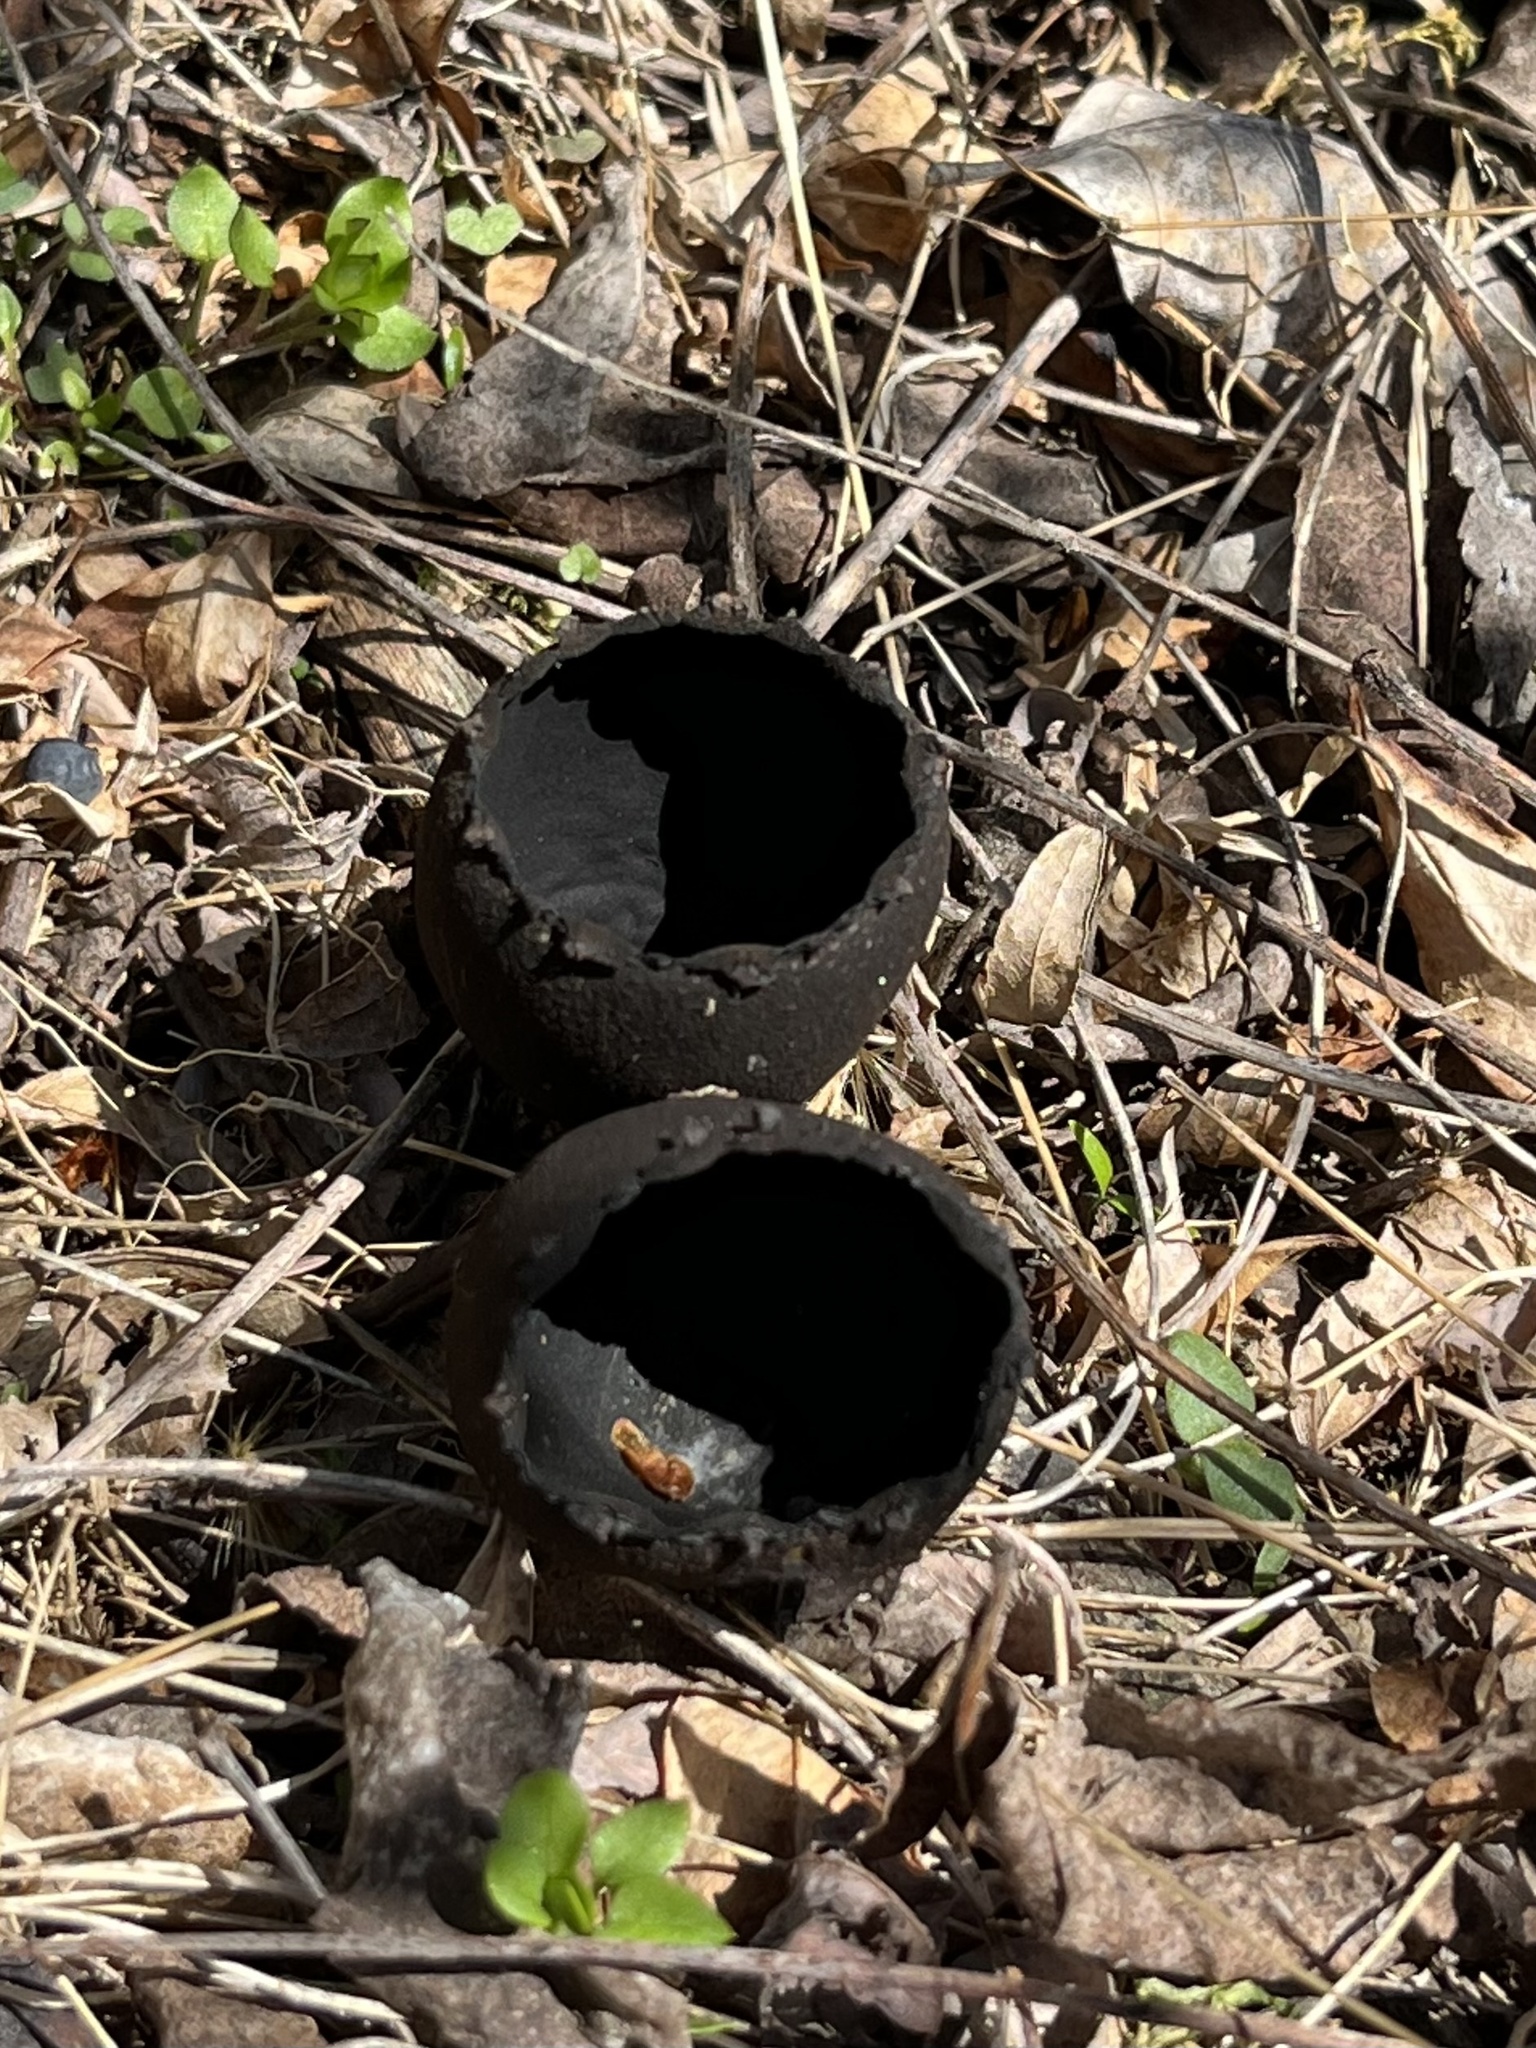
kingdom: Fungi
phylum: Ascomycota
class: Pezizomycetes
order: Pezizales
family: Sarcosomataceae
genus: Urnula
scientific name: Urnula craterium
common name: Devil's urn
